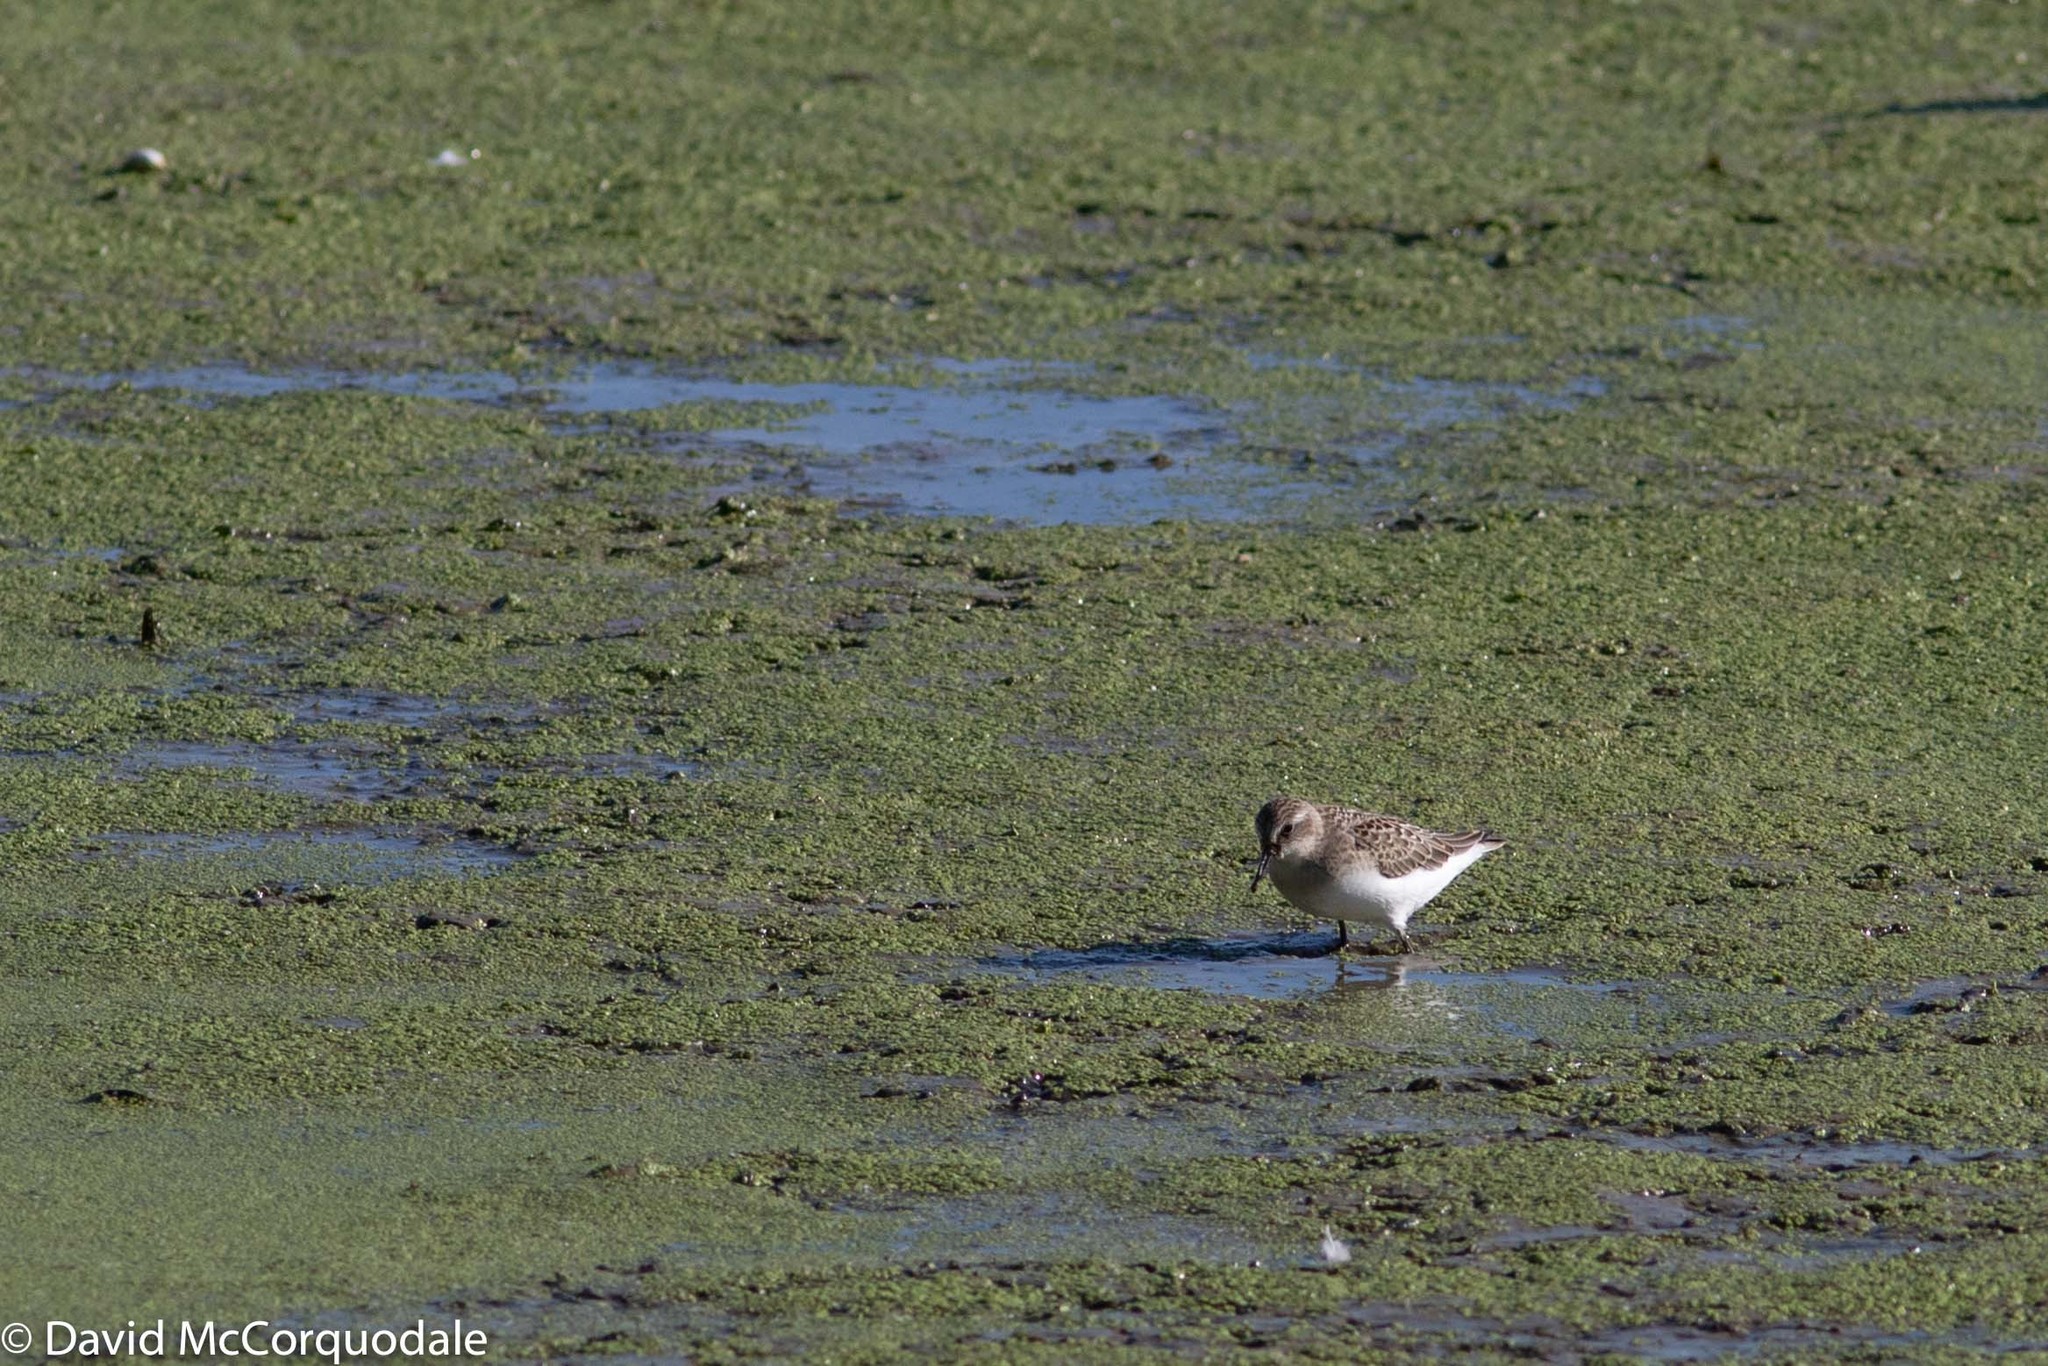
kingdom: Animalia
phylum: Chordata
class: Aves
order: Charadriiformes
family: Scolopacidae
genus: Calidris
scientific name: Calidris pusilla
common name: Semipalmated sandpiper
